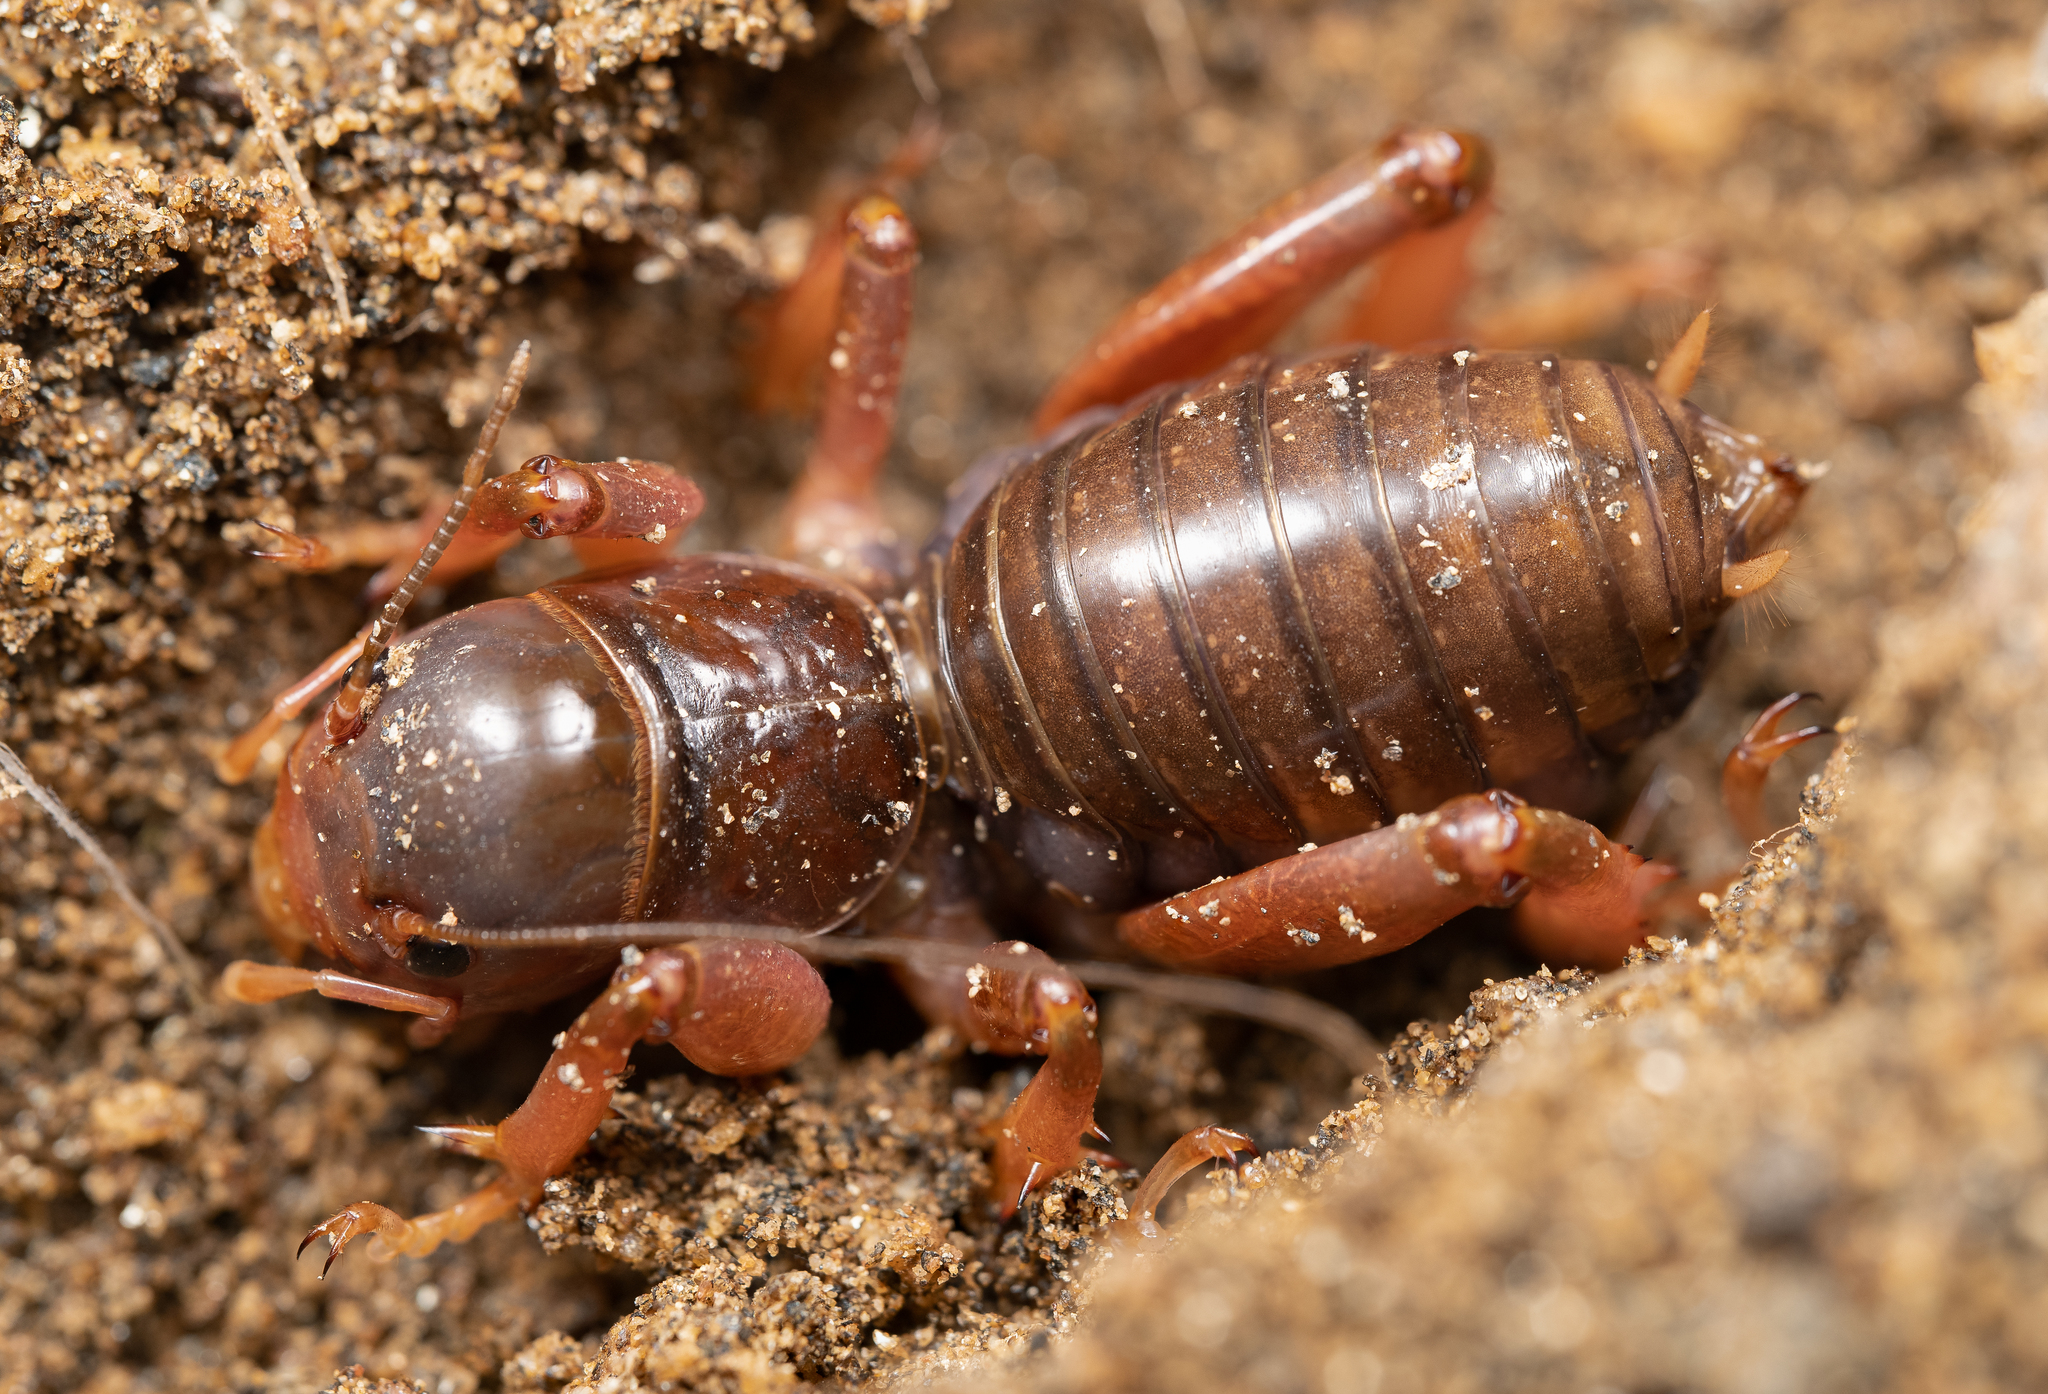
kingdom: Animalia
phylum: Arthropoda
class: Insecta
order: Orthoptera
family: Stenopelmatidae
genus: Ammopelmatus
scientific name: Ammopelmatus
